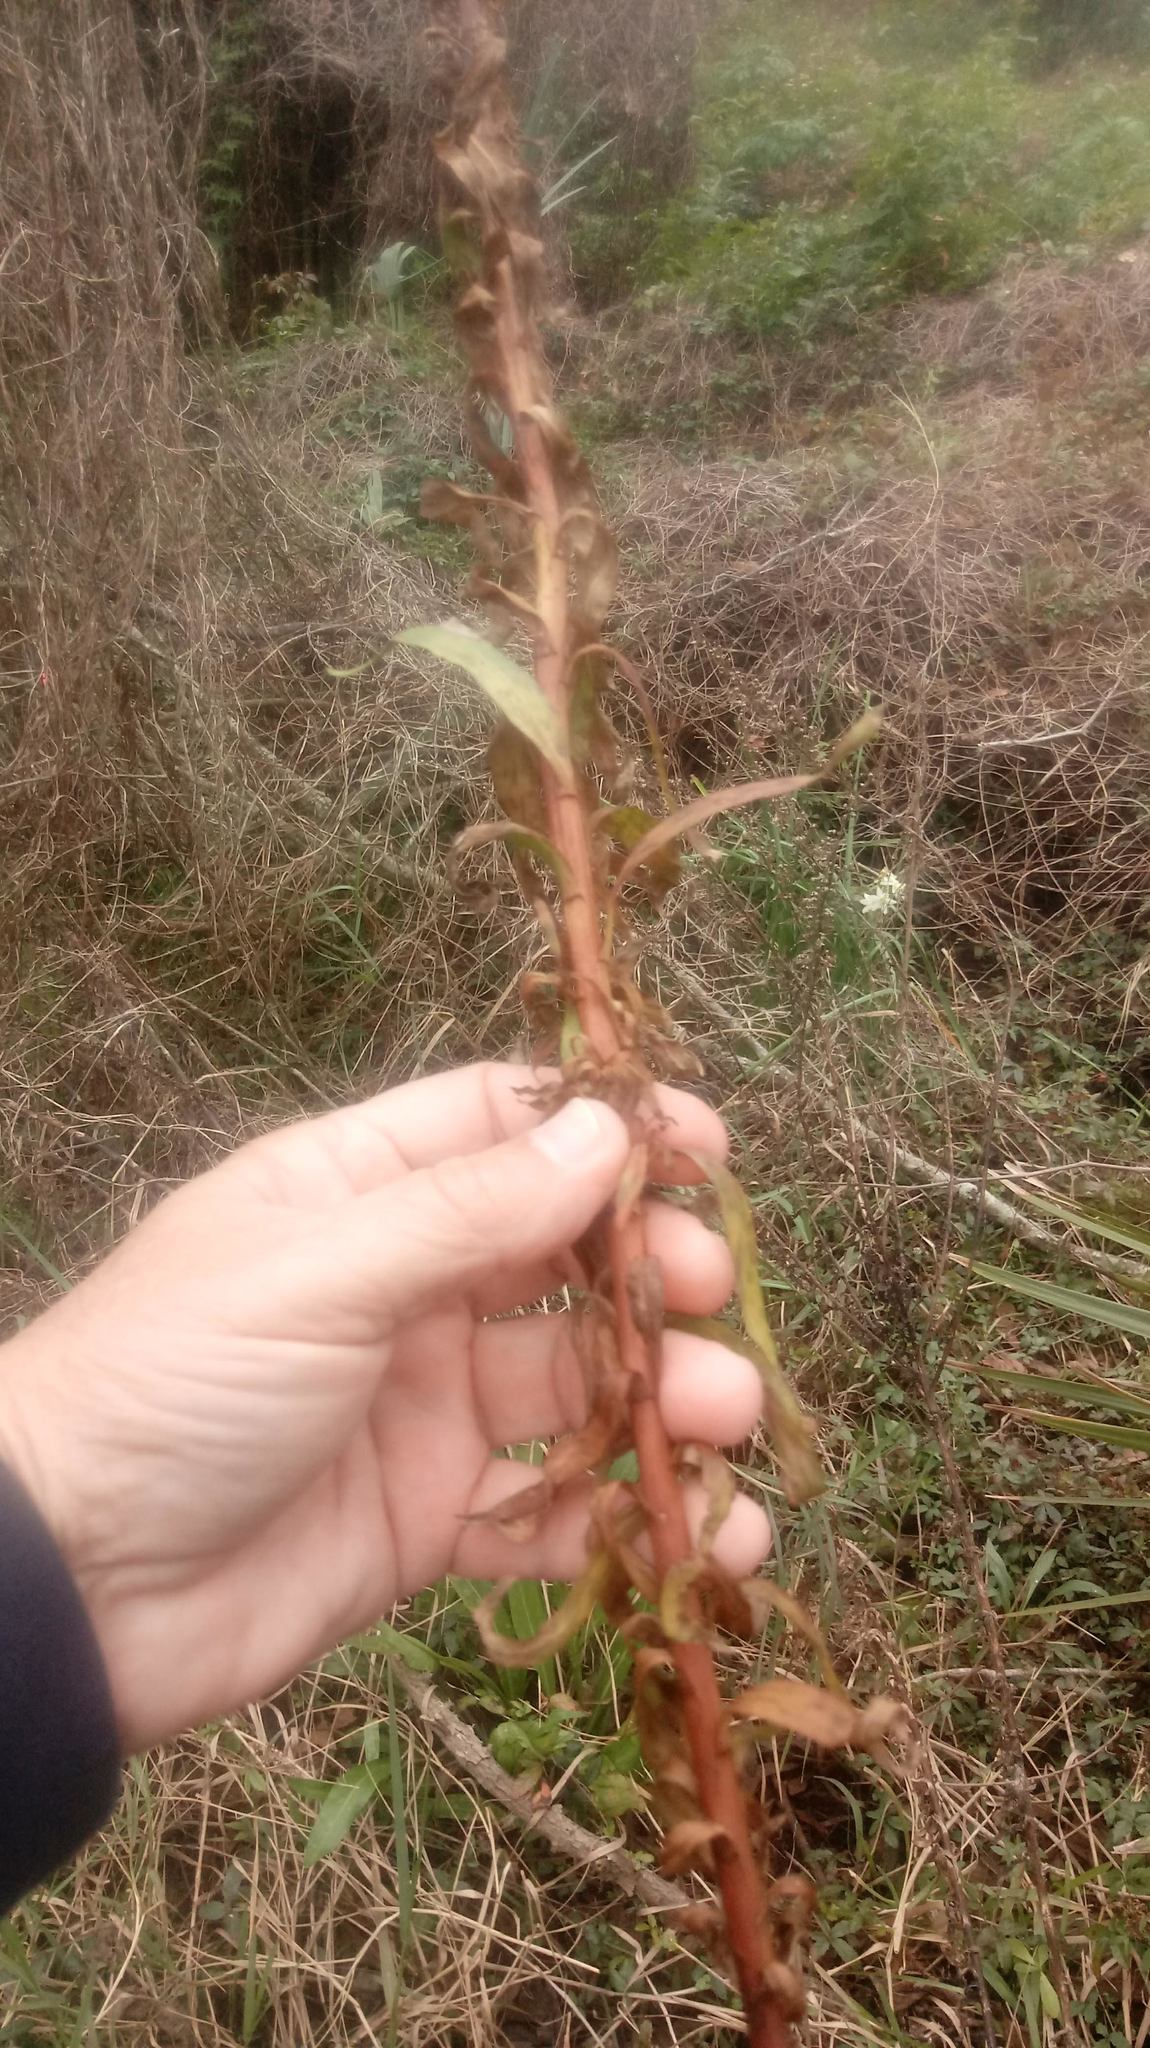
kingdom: Plantae
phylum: Tracheophyta
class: Magnoliopsida
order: Asterales
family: Asteraceae
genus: Solidago
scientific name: Solidago mexicana
